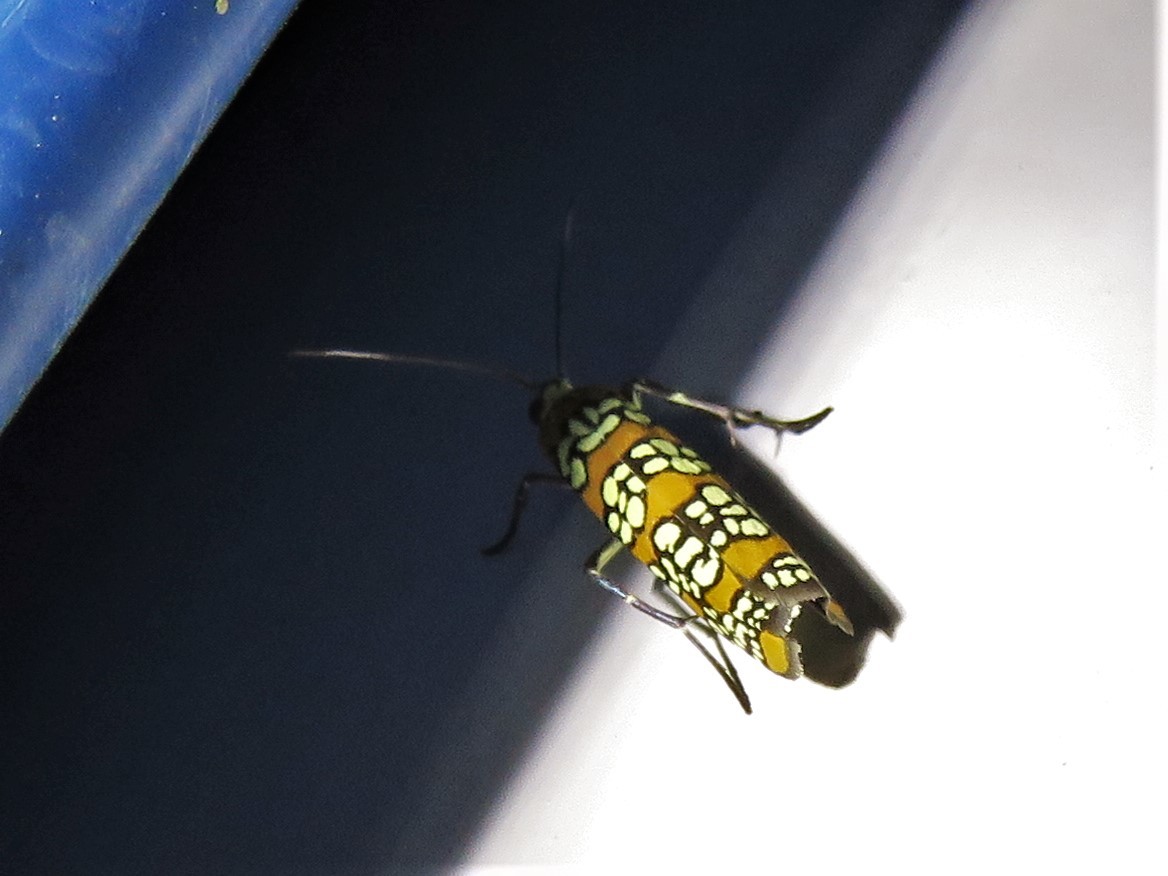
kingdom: Animalia
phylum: Arthropoda
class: Insecta
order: Lepidoptera
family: Attevidae
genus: Atteva
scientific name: Atteva punctella
